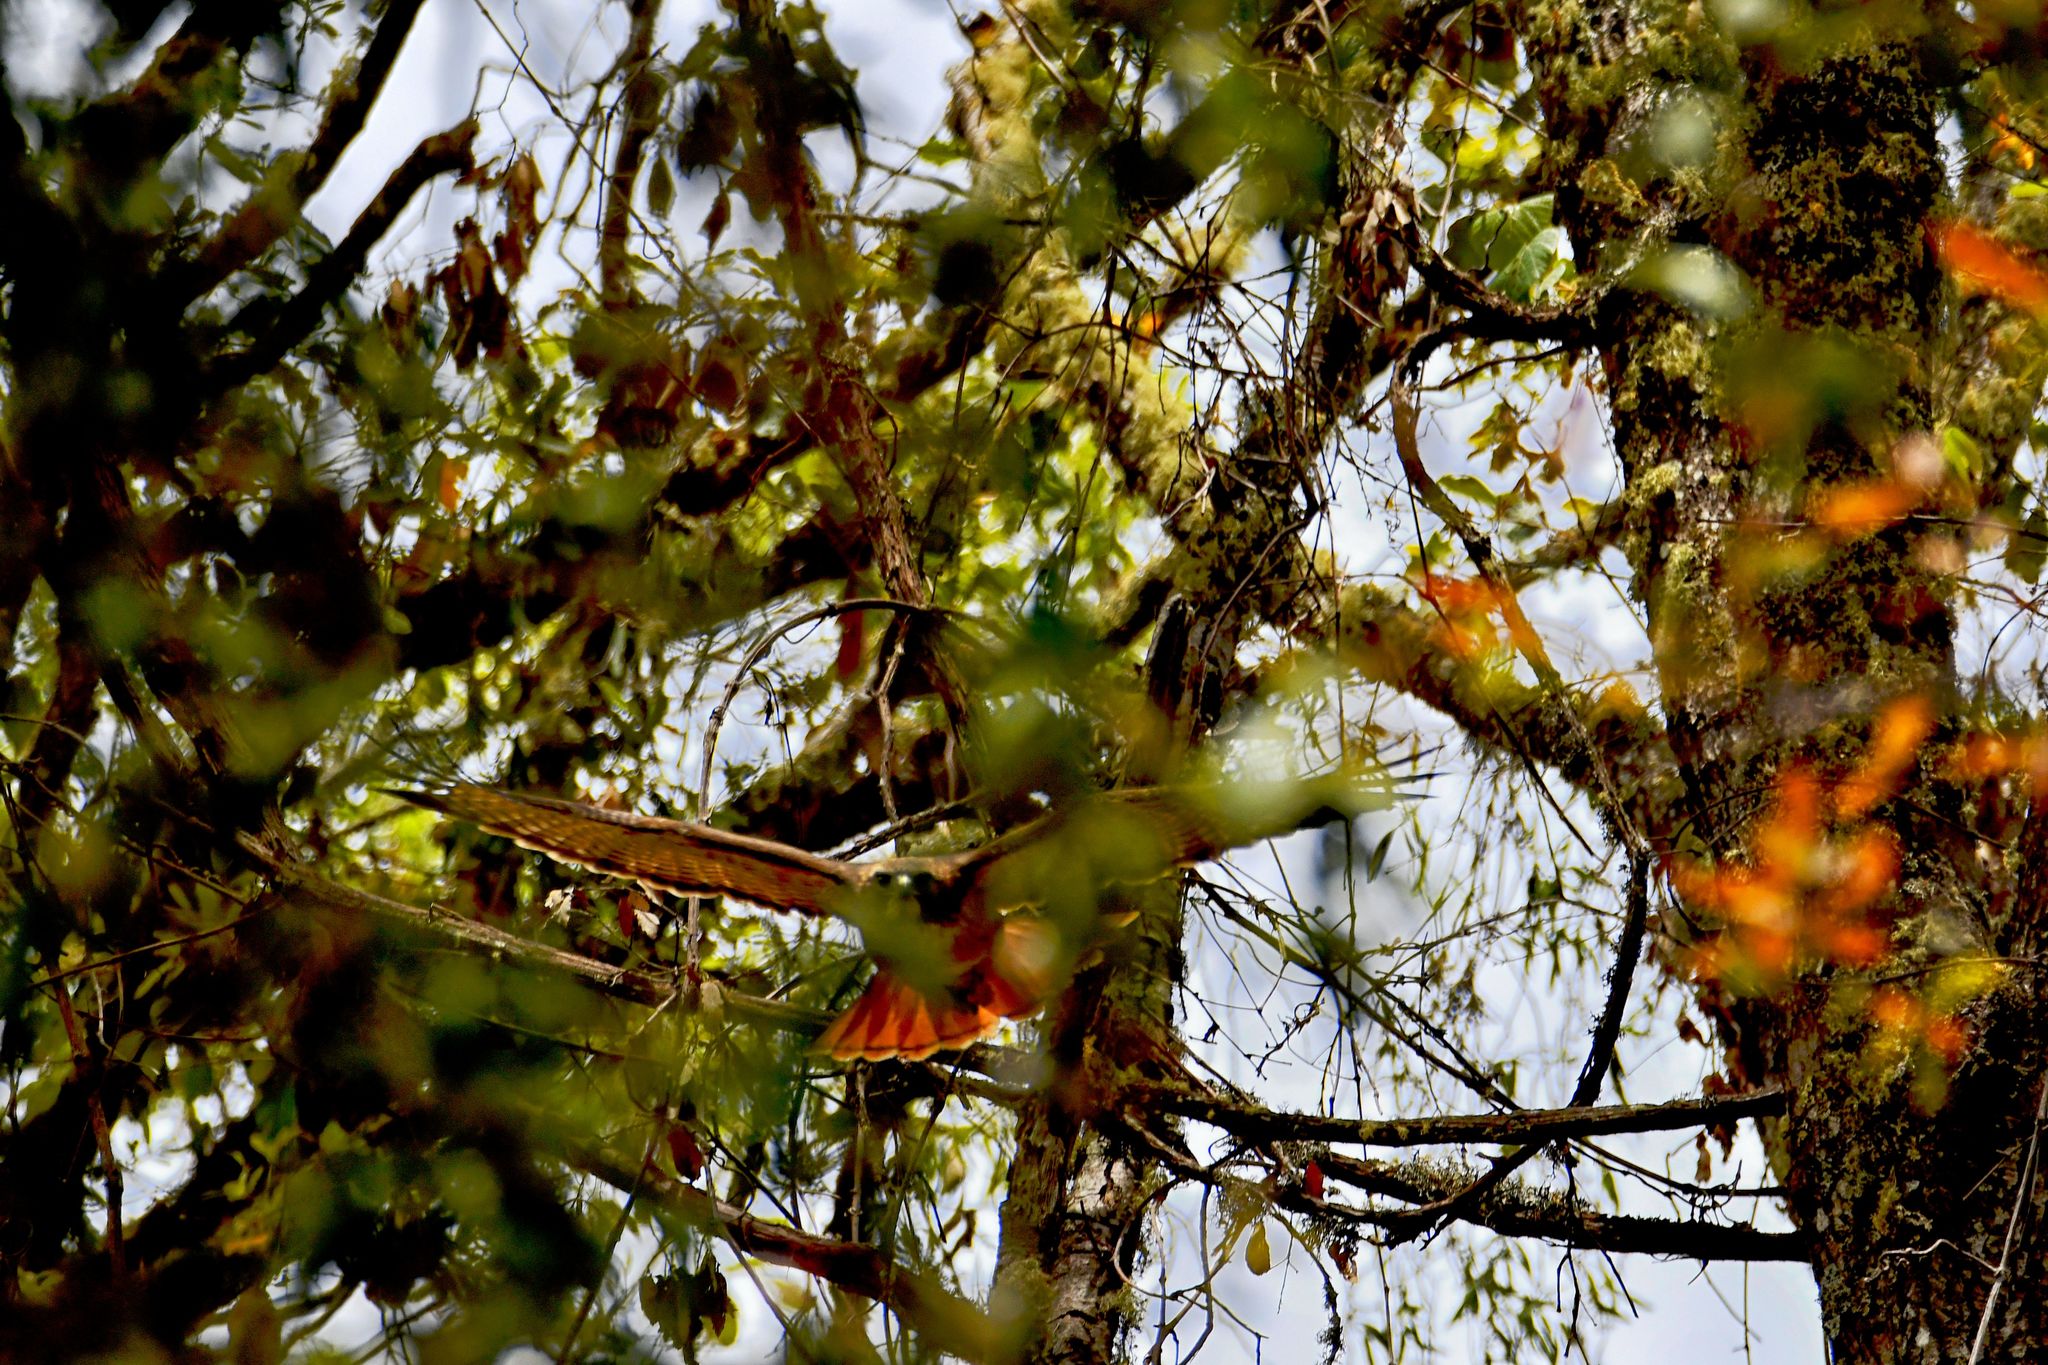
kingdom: Animalia
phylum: Chordata
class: Aves
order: Accipitriformes
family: Accipitridae
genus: Buteo
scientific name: Buteo jamaicensis
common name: Red-tailed hawk
